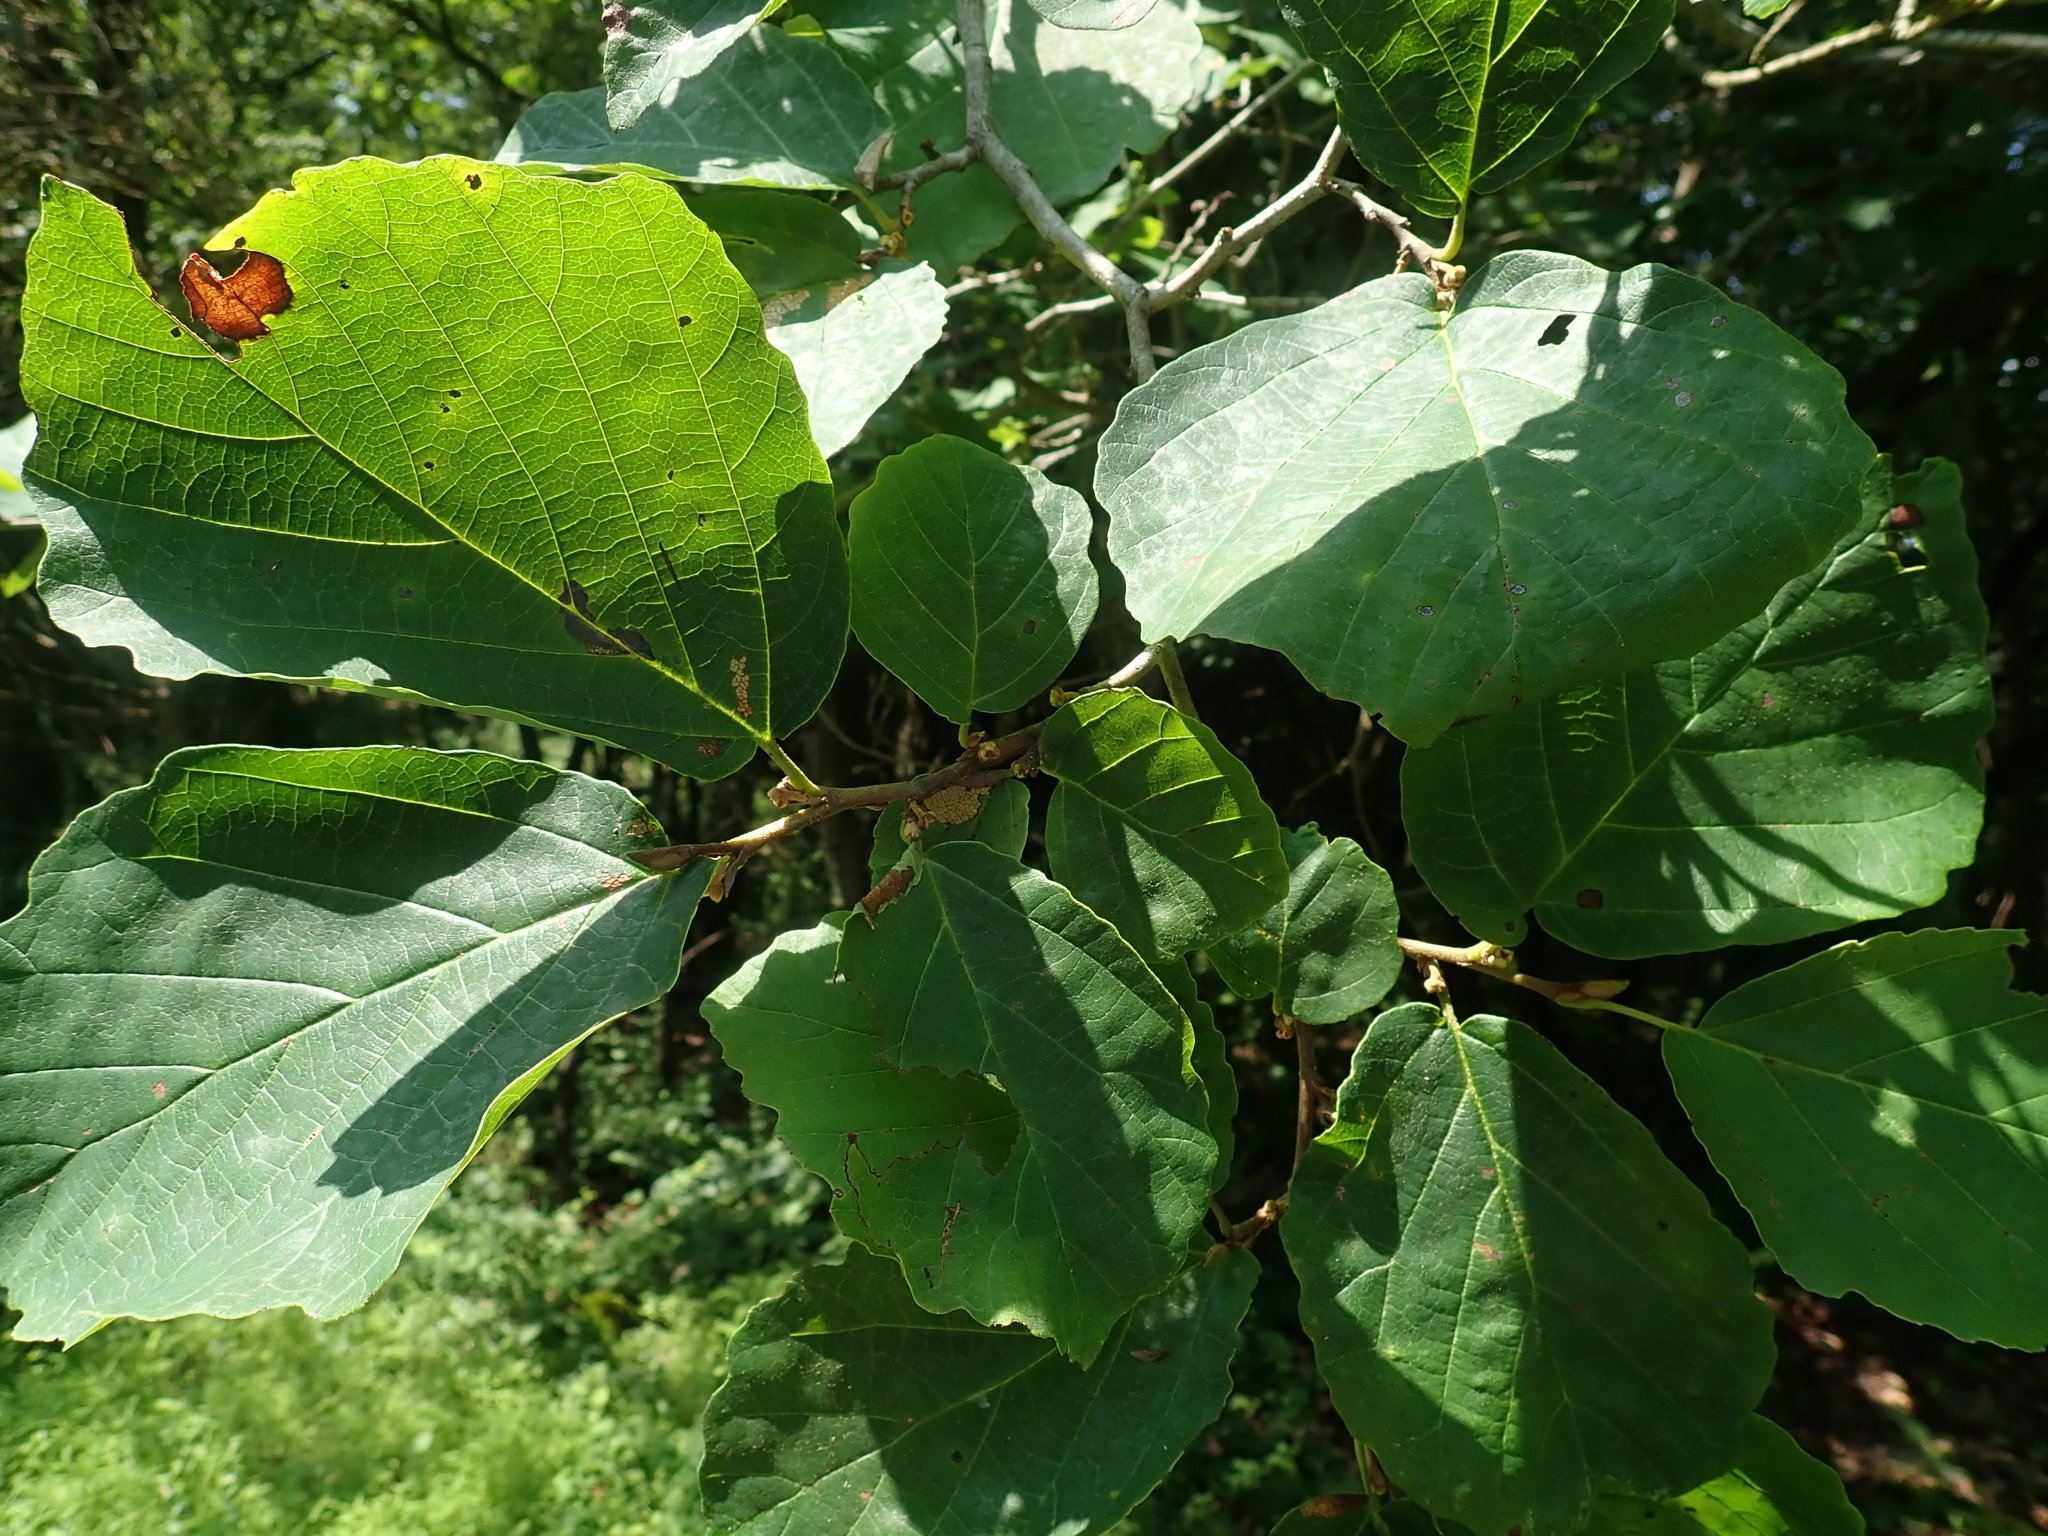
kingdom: Plantae
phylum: Tracheophyta
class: Magnoliopsida
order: Saxifragales
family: Hamamelidaceae
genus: Hamamelis
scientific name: Hamamelis virginiana
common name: Witch-hazel
